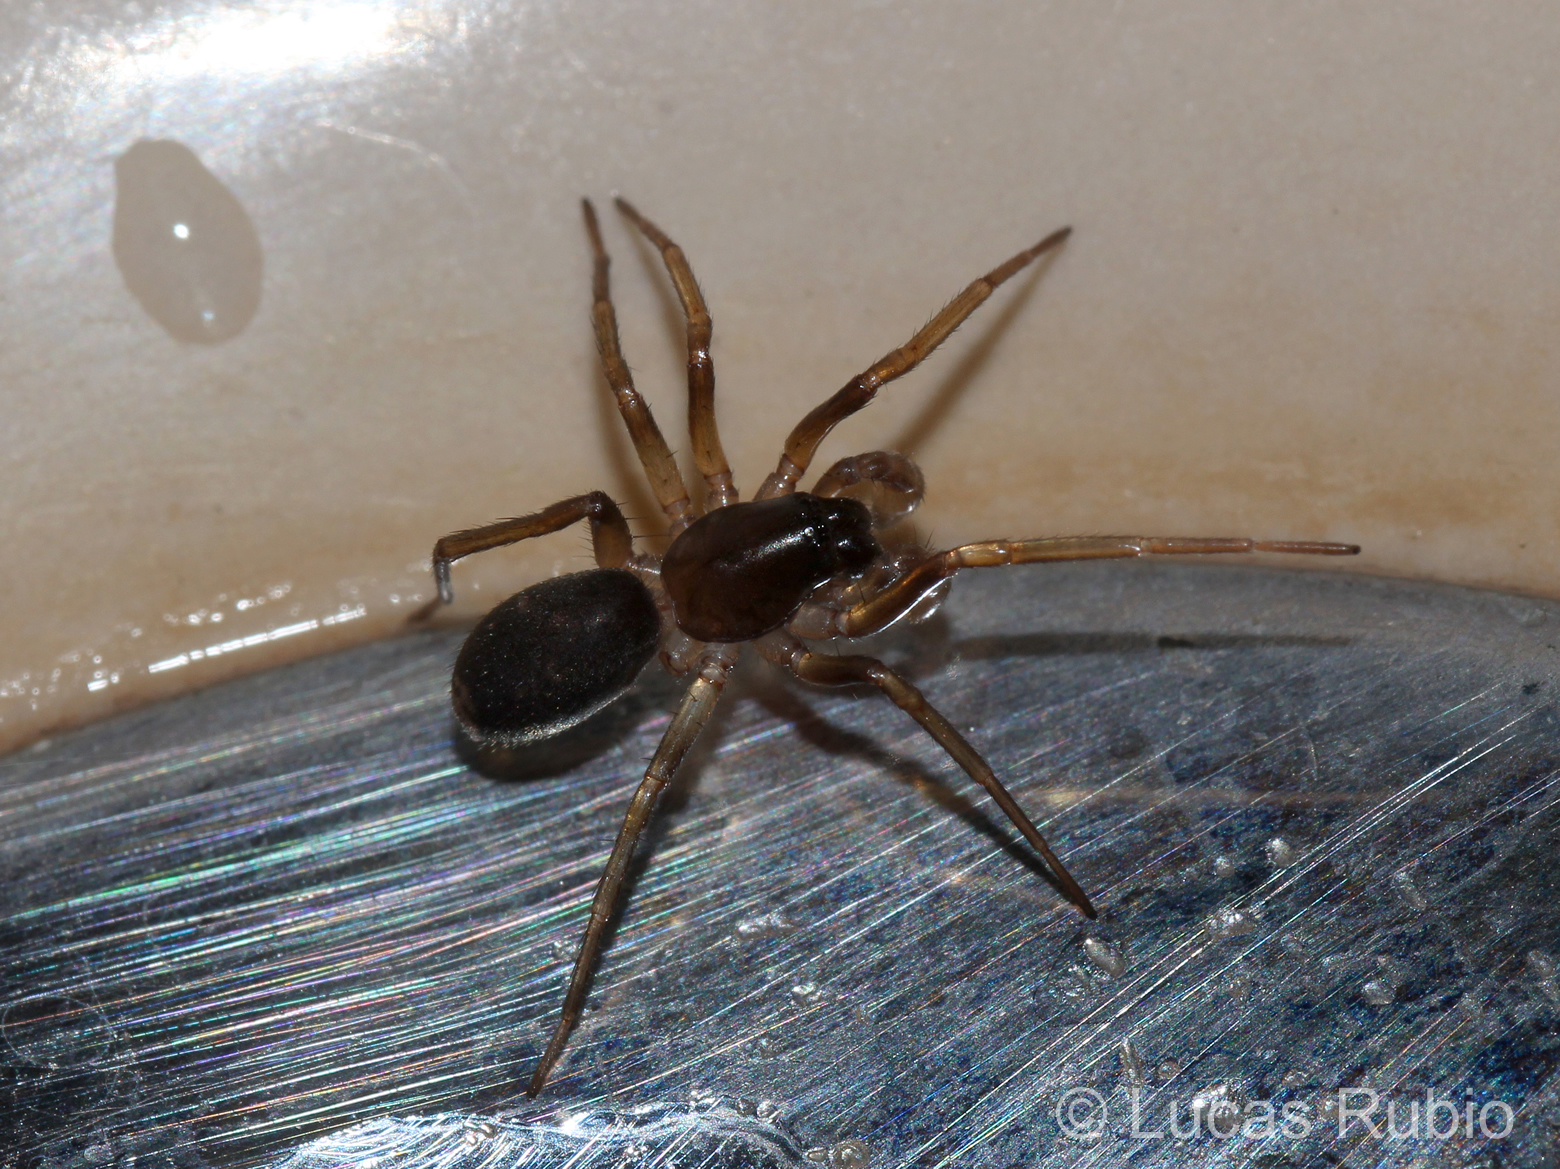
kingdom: Animalia
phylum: Arthropoda
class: Arachnida
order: Araneae
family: Corinnidae
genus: Falconina
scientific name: Falconina gracilis
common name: Antmimic spider
